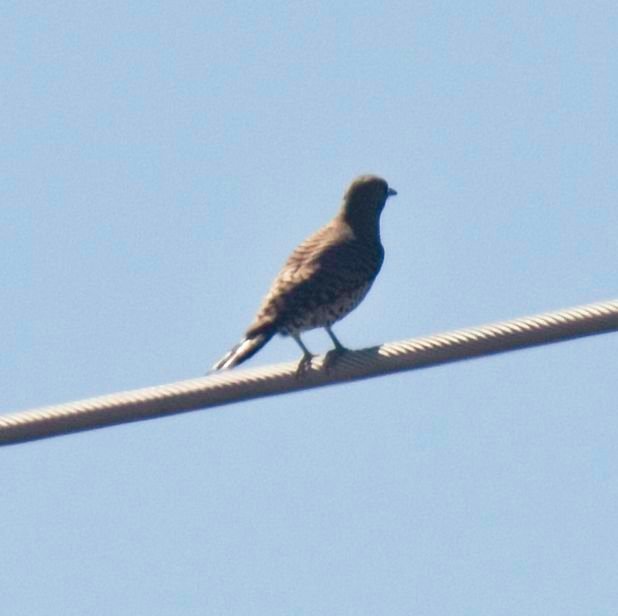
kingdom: Animalia
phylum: Chordata
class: Aves
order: Piciformes
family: Picidae
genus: Colaptes
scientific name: Colaptes auratus
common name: Northern flicker
